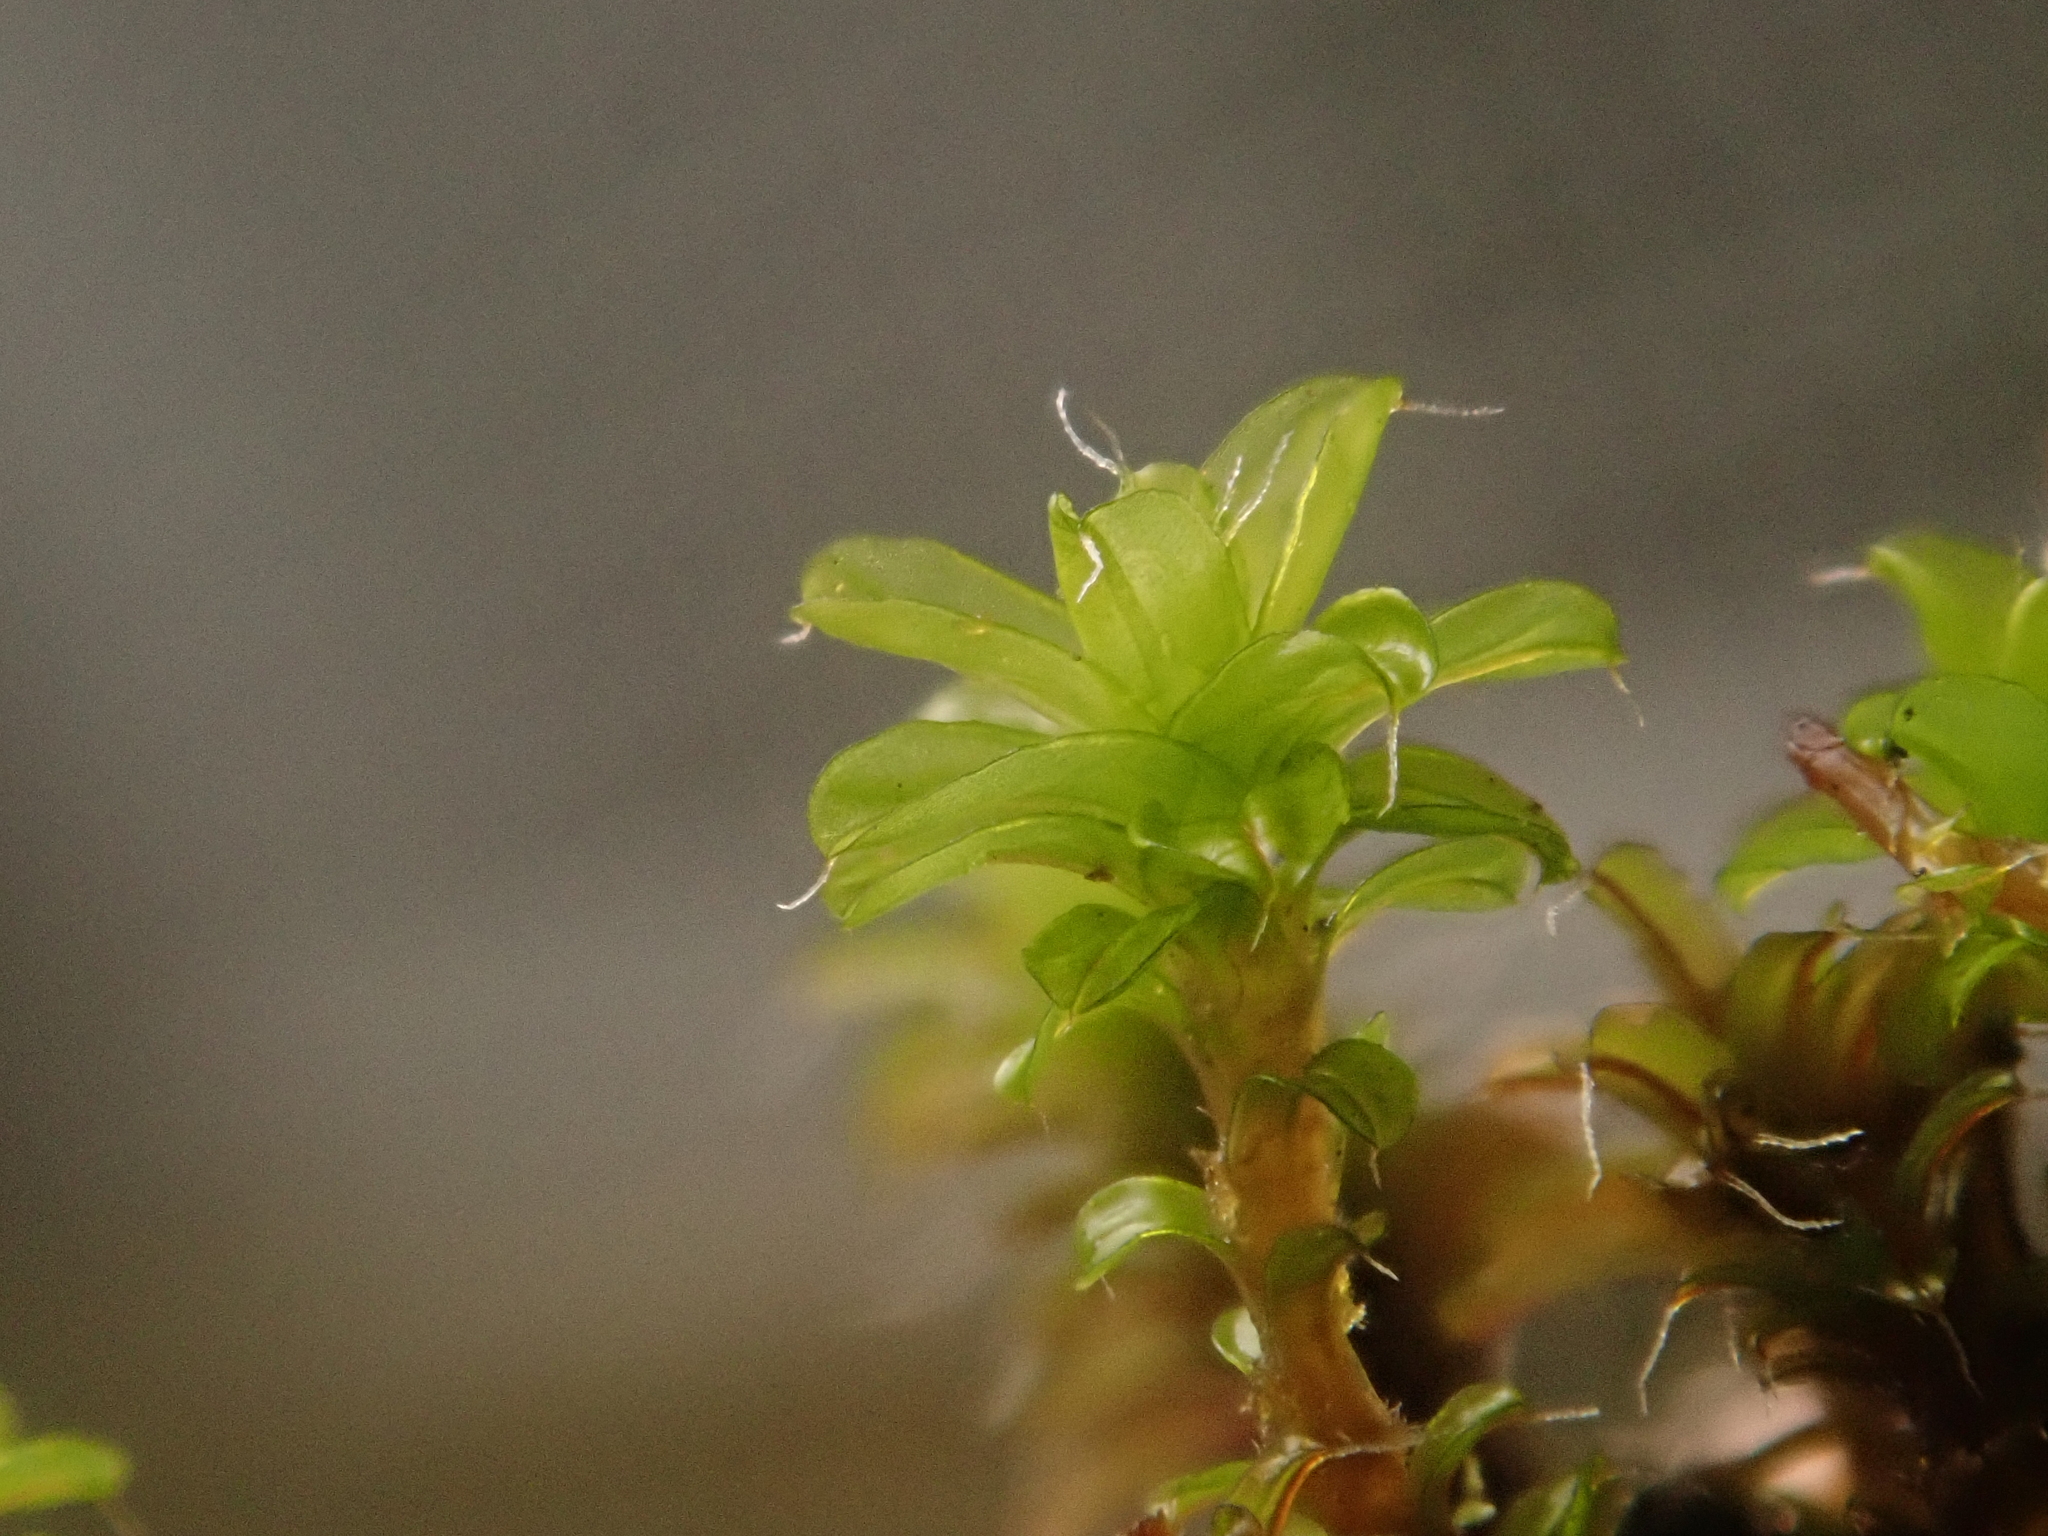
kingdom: Plantae
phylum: Bryophyta
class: Bryopsida
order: Pottiales
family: Pottiaceae
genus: Syntrichia
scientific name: Syntrichia ruralis
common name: Sidewalk screw moss
